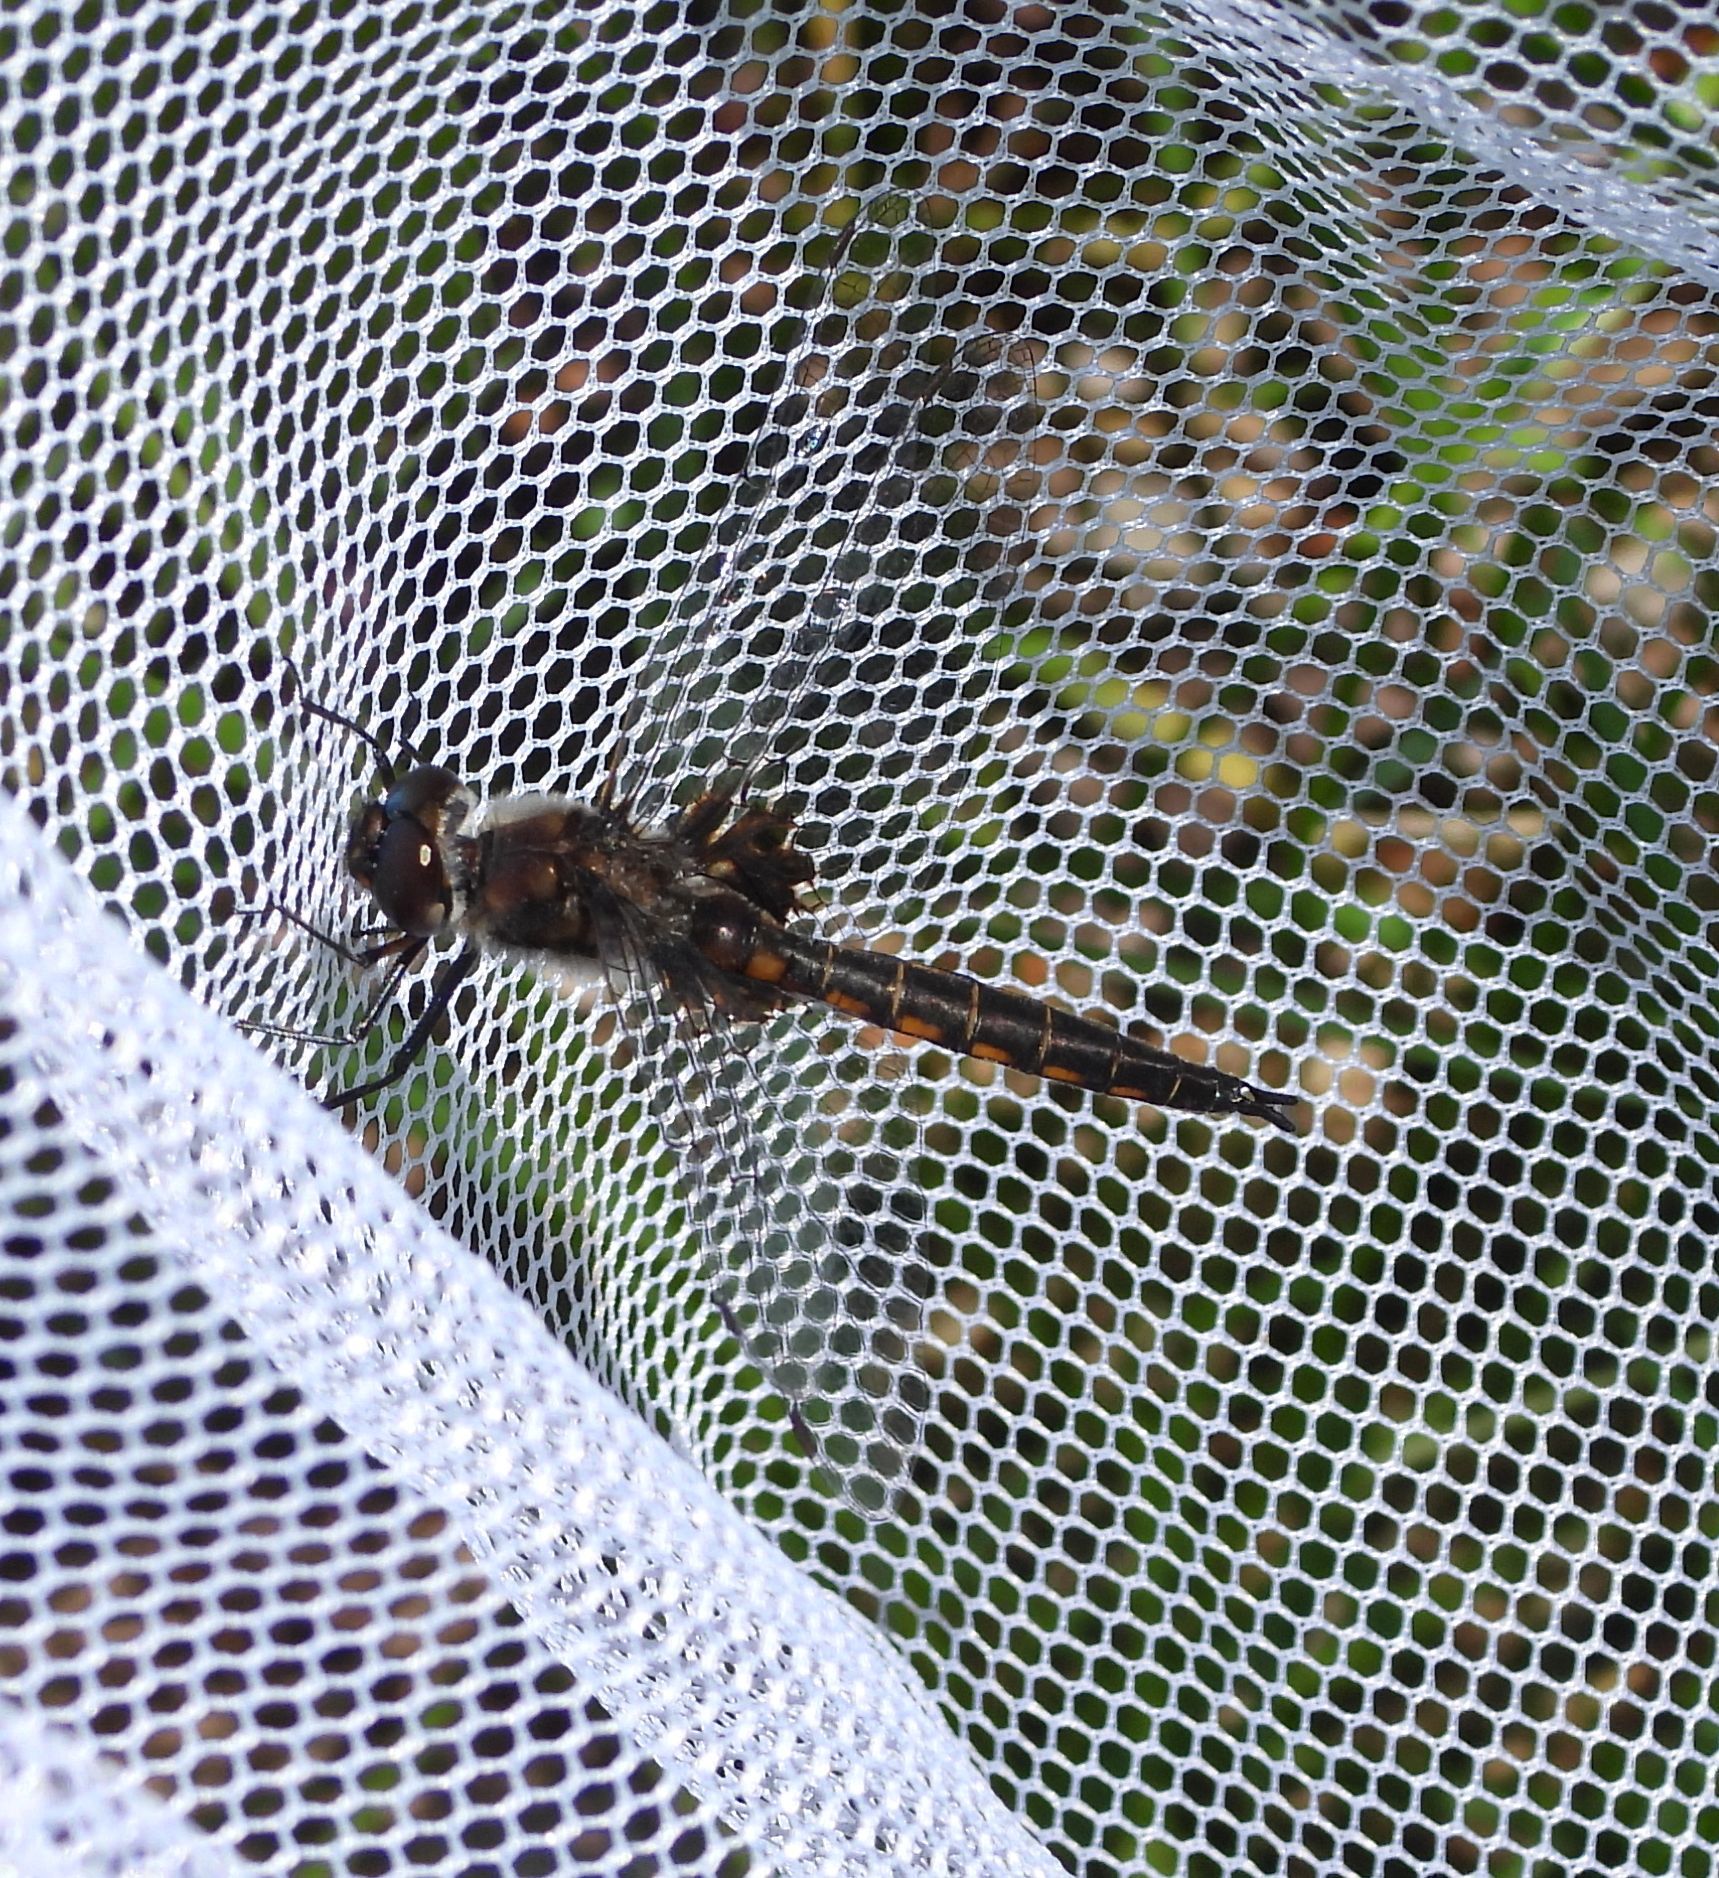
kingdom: Animalia
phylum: Arthropoda
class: Insecta
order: Odonata
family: Corduliidae
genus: Epitheca
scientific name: Epitheca cynosura
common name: Common baskettail
